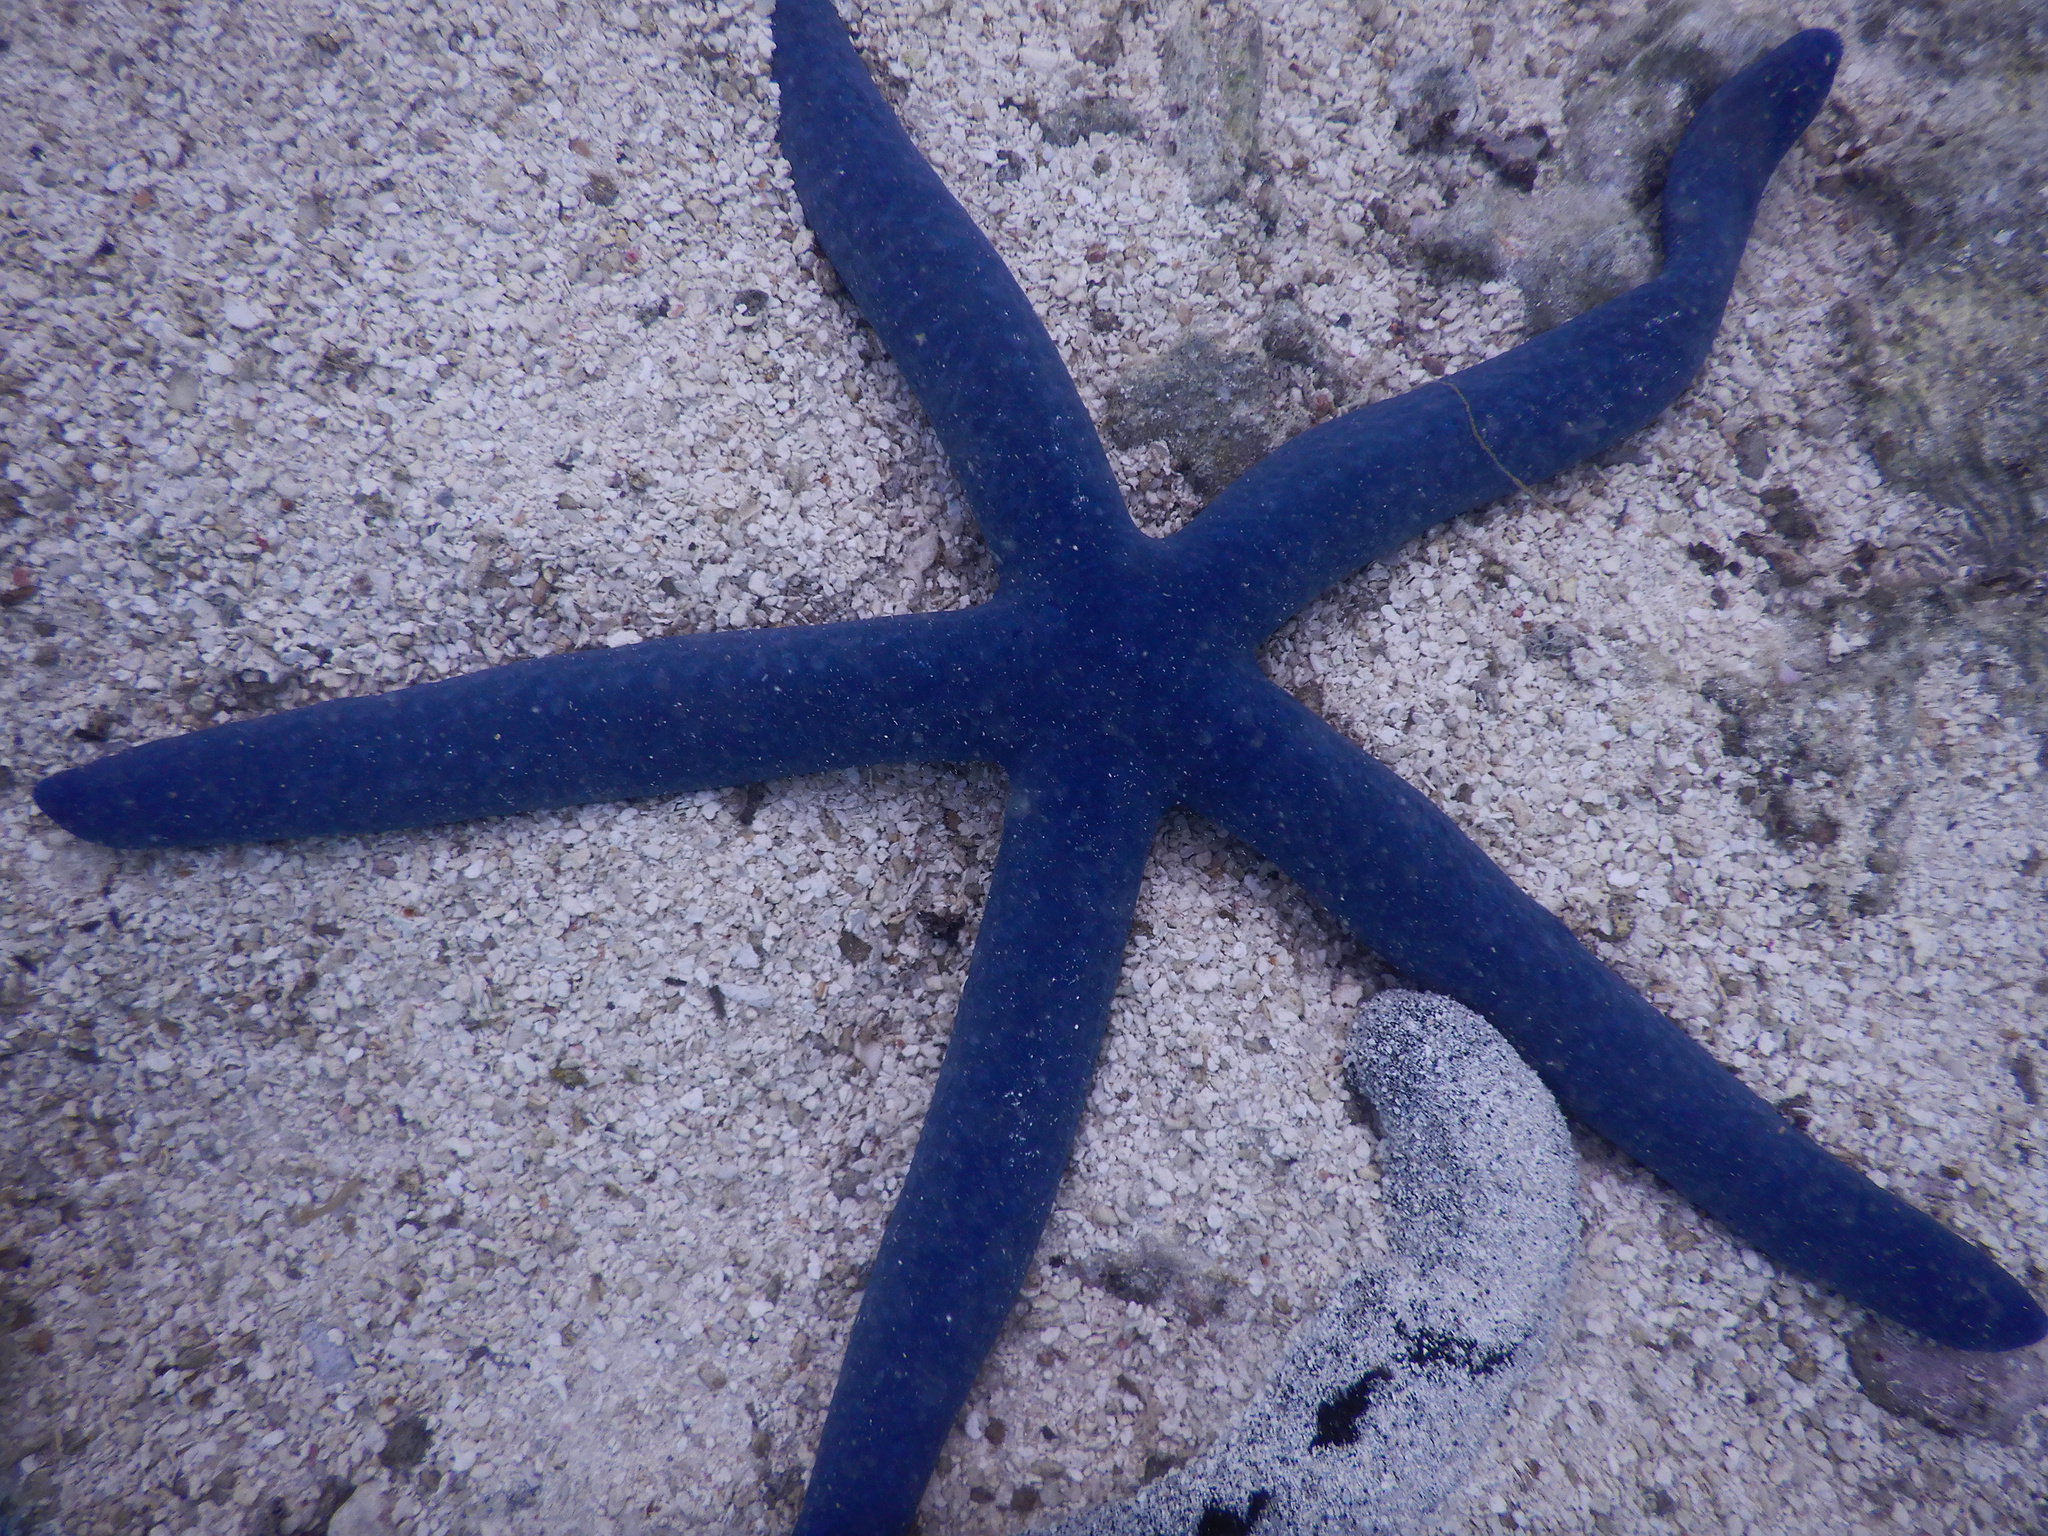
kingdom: Animalia
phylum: Echinodermata
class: Asteroidea
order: Valvatida
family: Ophidiasteridae
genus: Linckia
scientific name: Linckia laevigata
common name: Azure sea star
